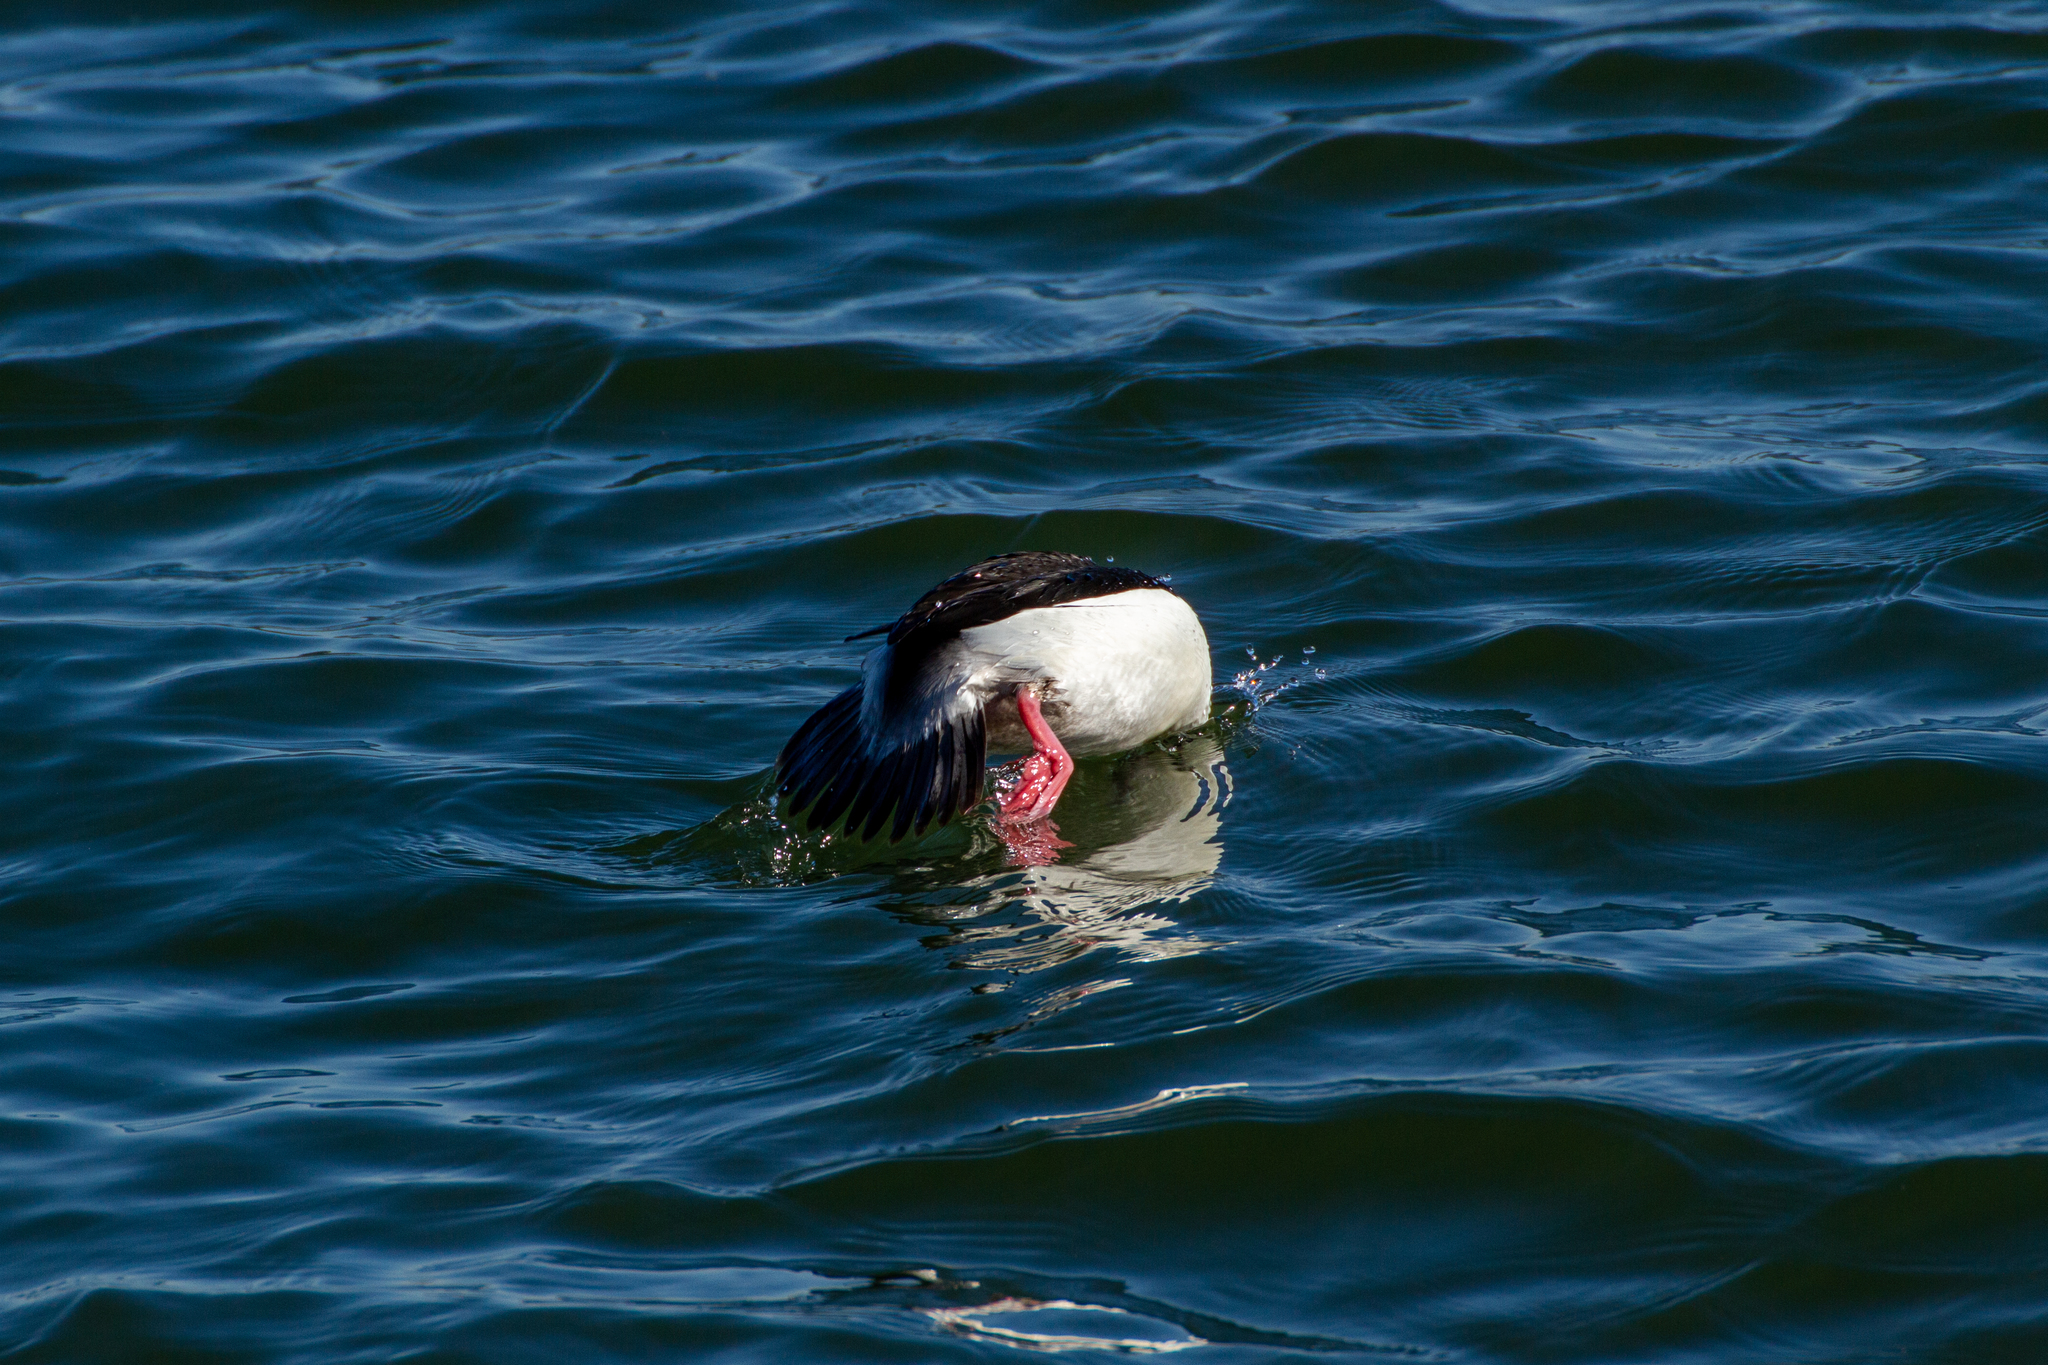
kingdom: Animalia
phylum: Chordata
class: Aves
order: Anseriformes
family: Anatidae
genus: Bucephala
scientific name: Bucephala albeola
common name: Bufflehead
